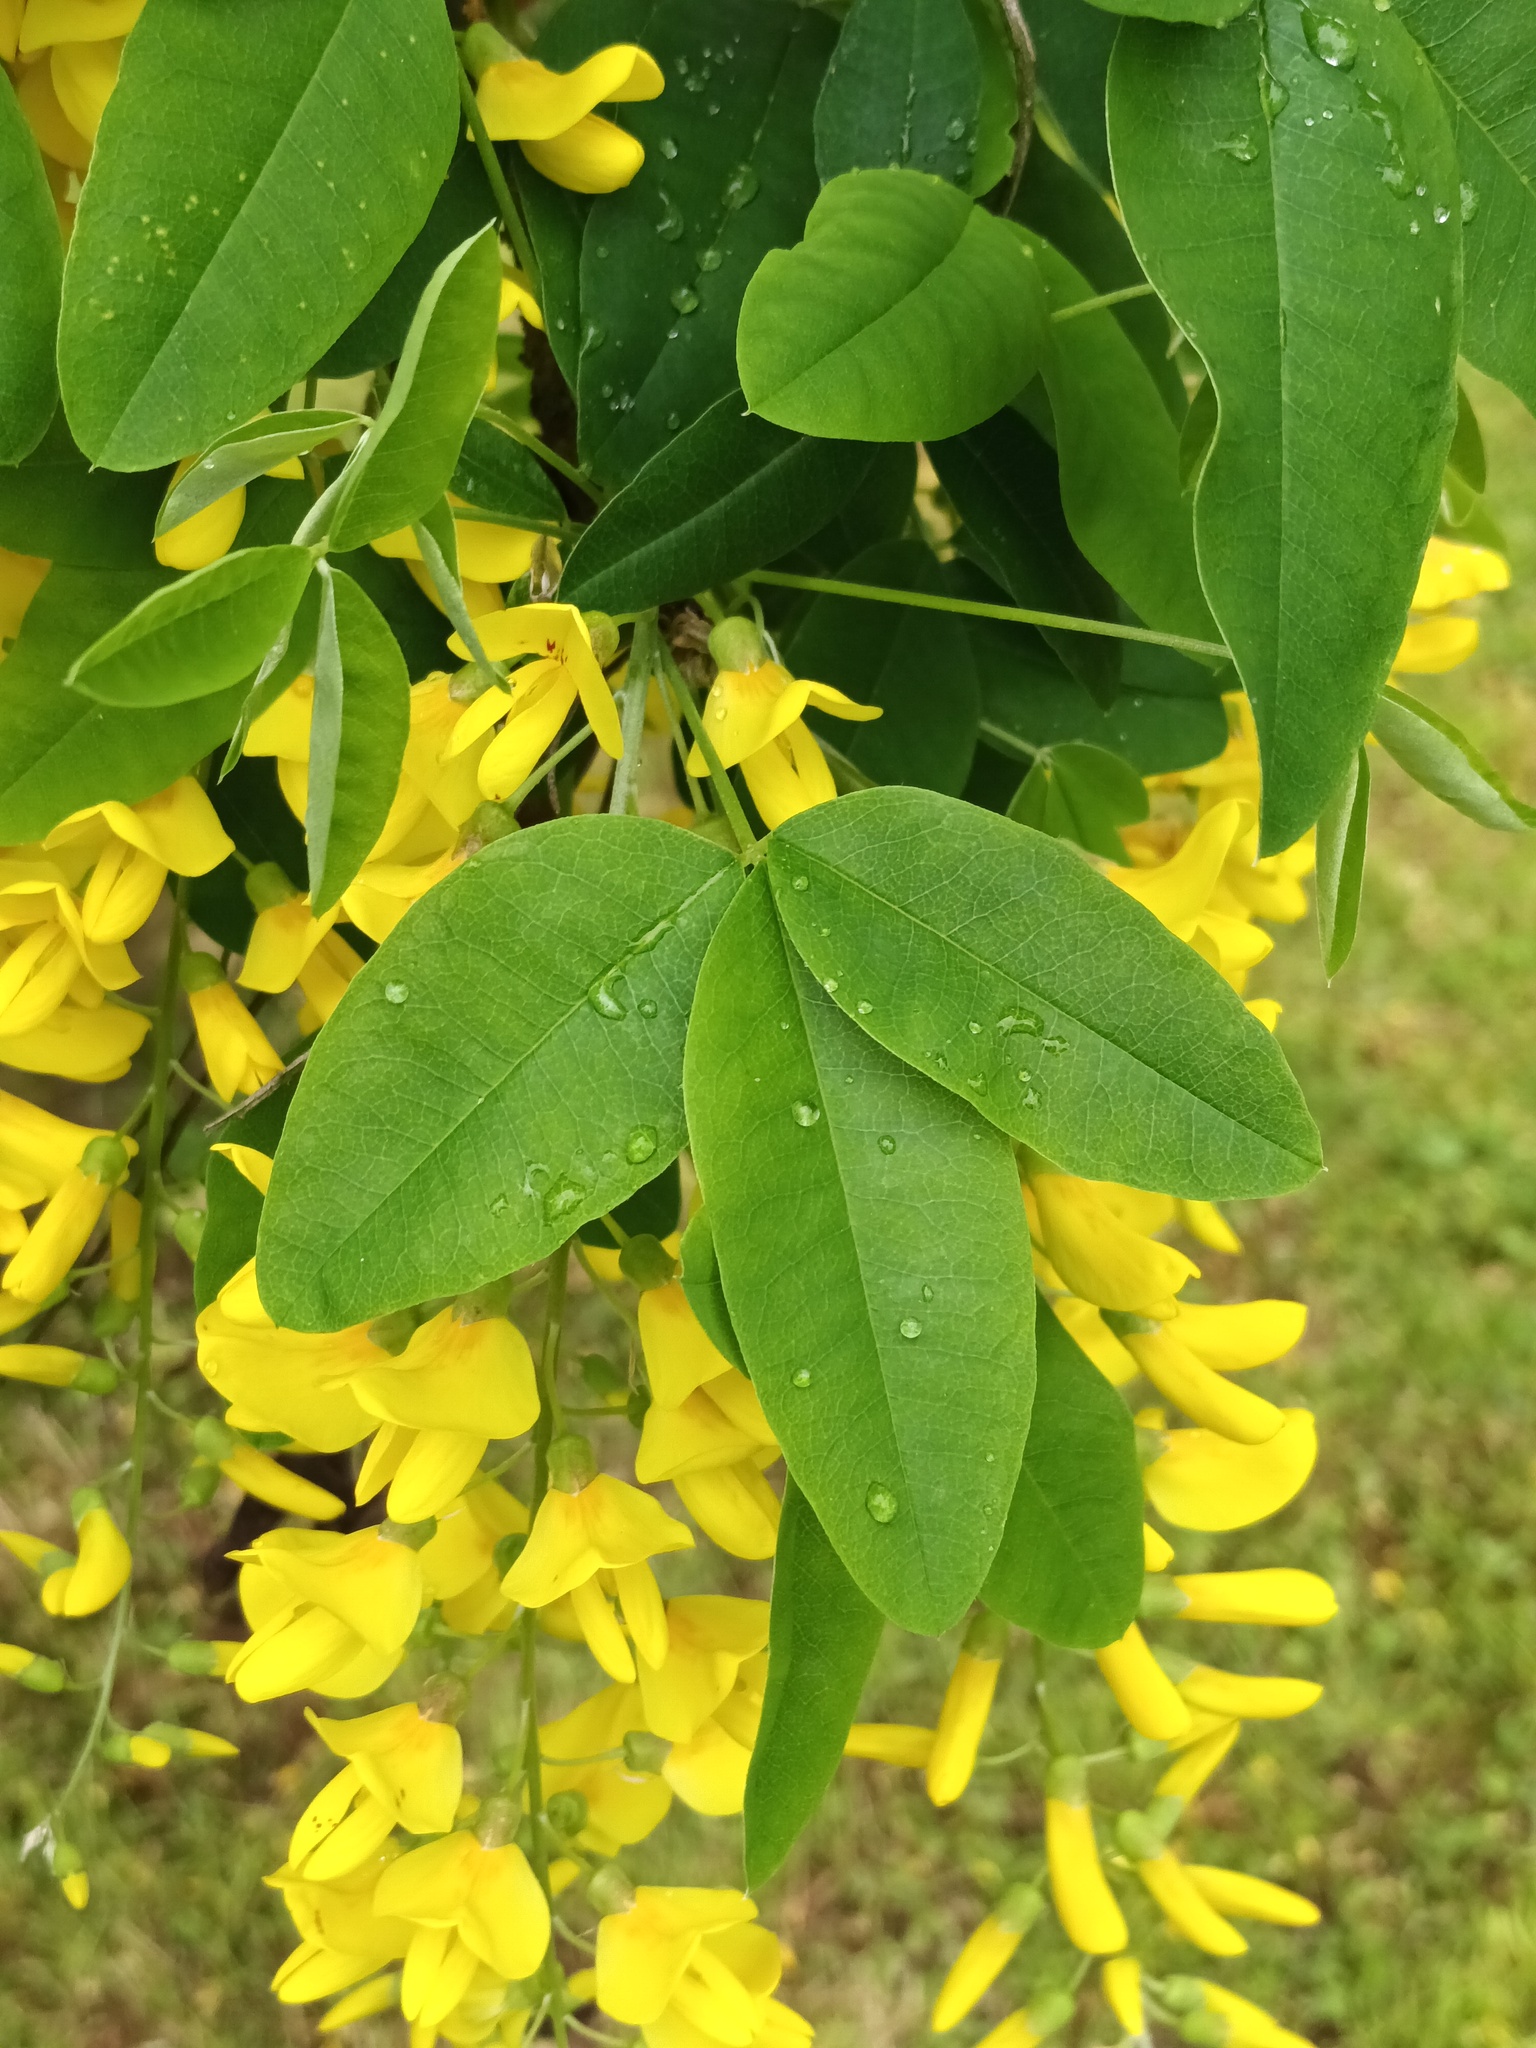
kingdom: Plantae
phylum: Tracheophyta
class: Magnoliopsida
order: Fabales
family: Fabaceae
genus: Laburnum
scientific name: Laburnum anagyroides
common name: Laburnum
